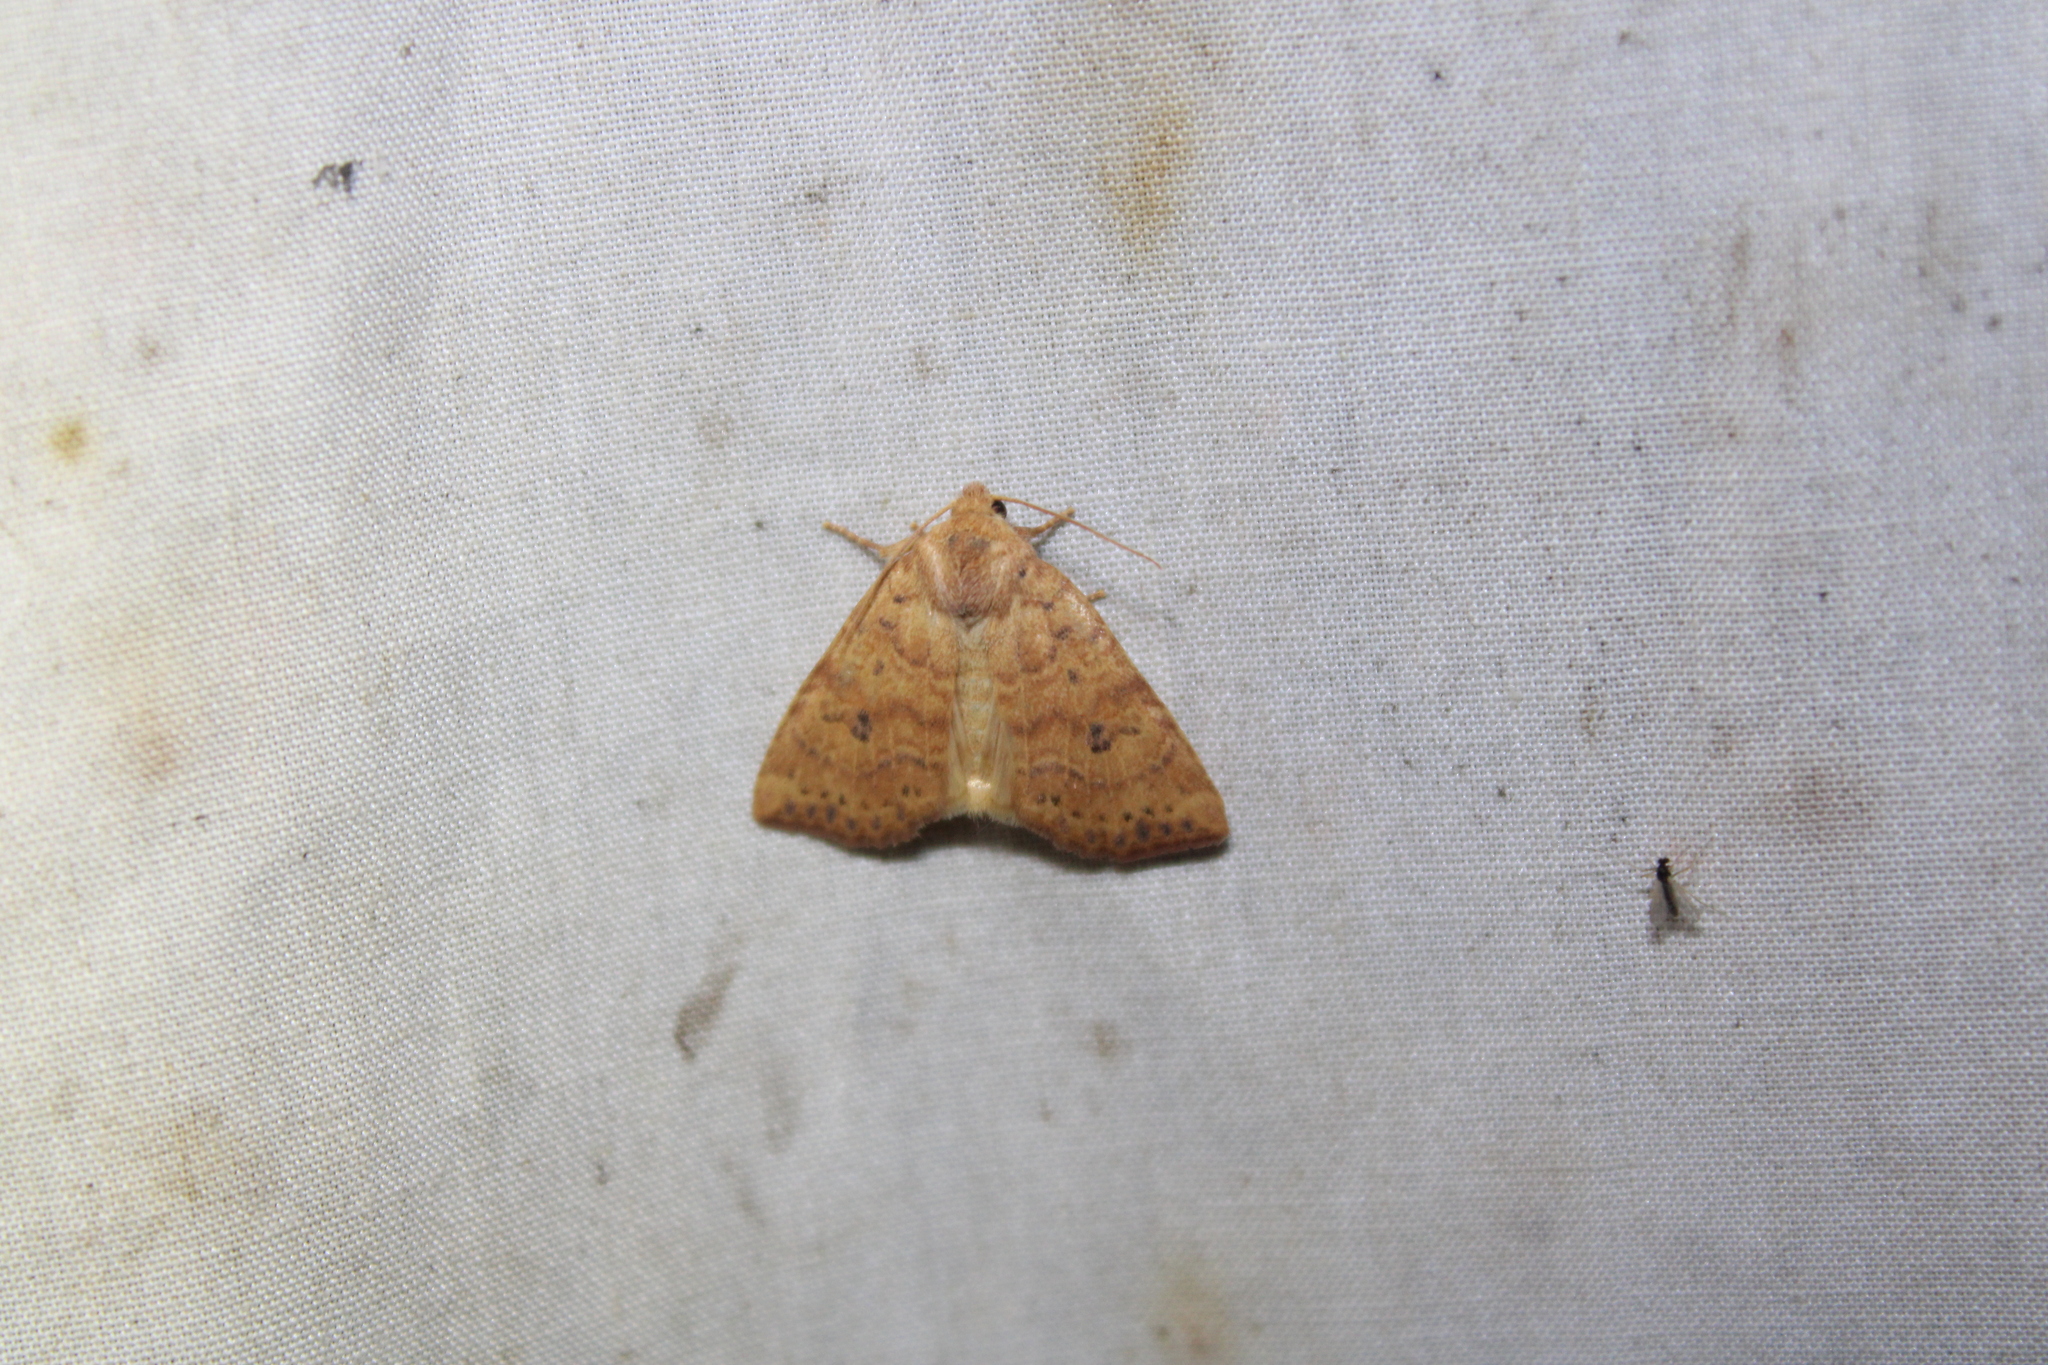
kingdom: Animalia
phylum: Arthropoda
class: Insecta
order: Lepidoptera
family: Noctuidae
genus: Anathix
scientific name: Anathix ralla
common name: Dotted sallow
